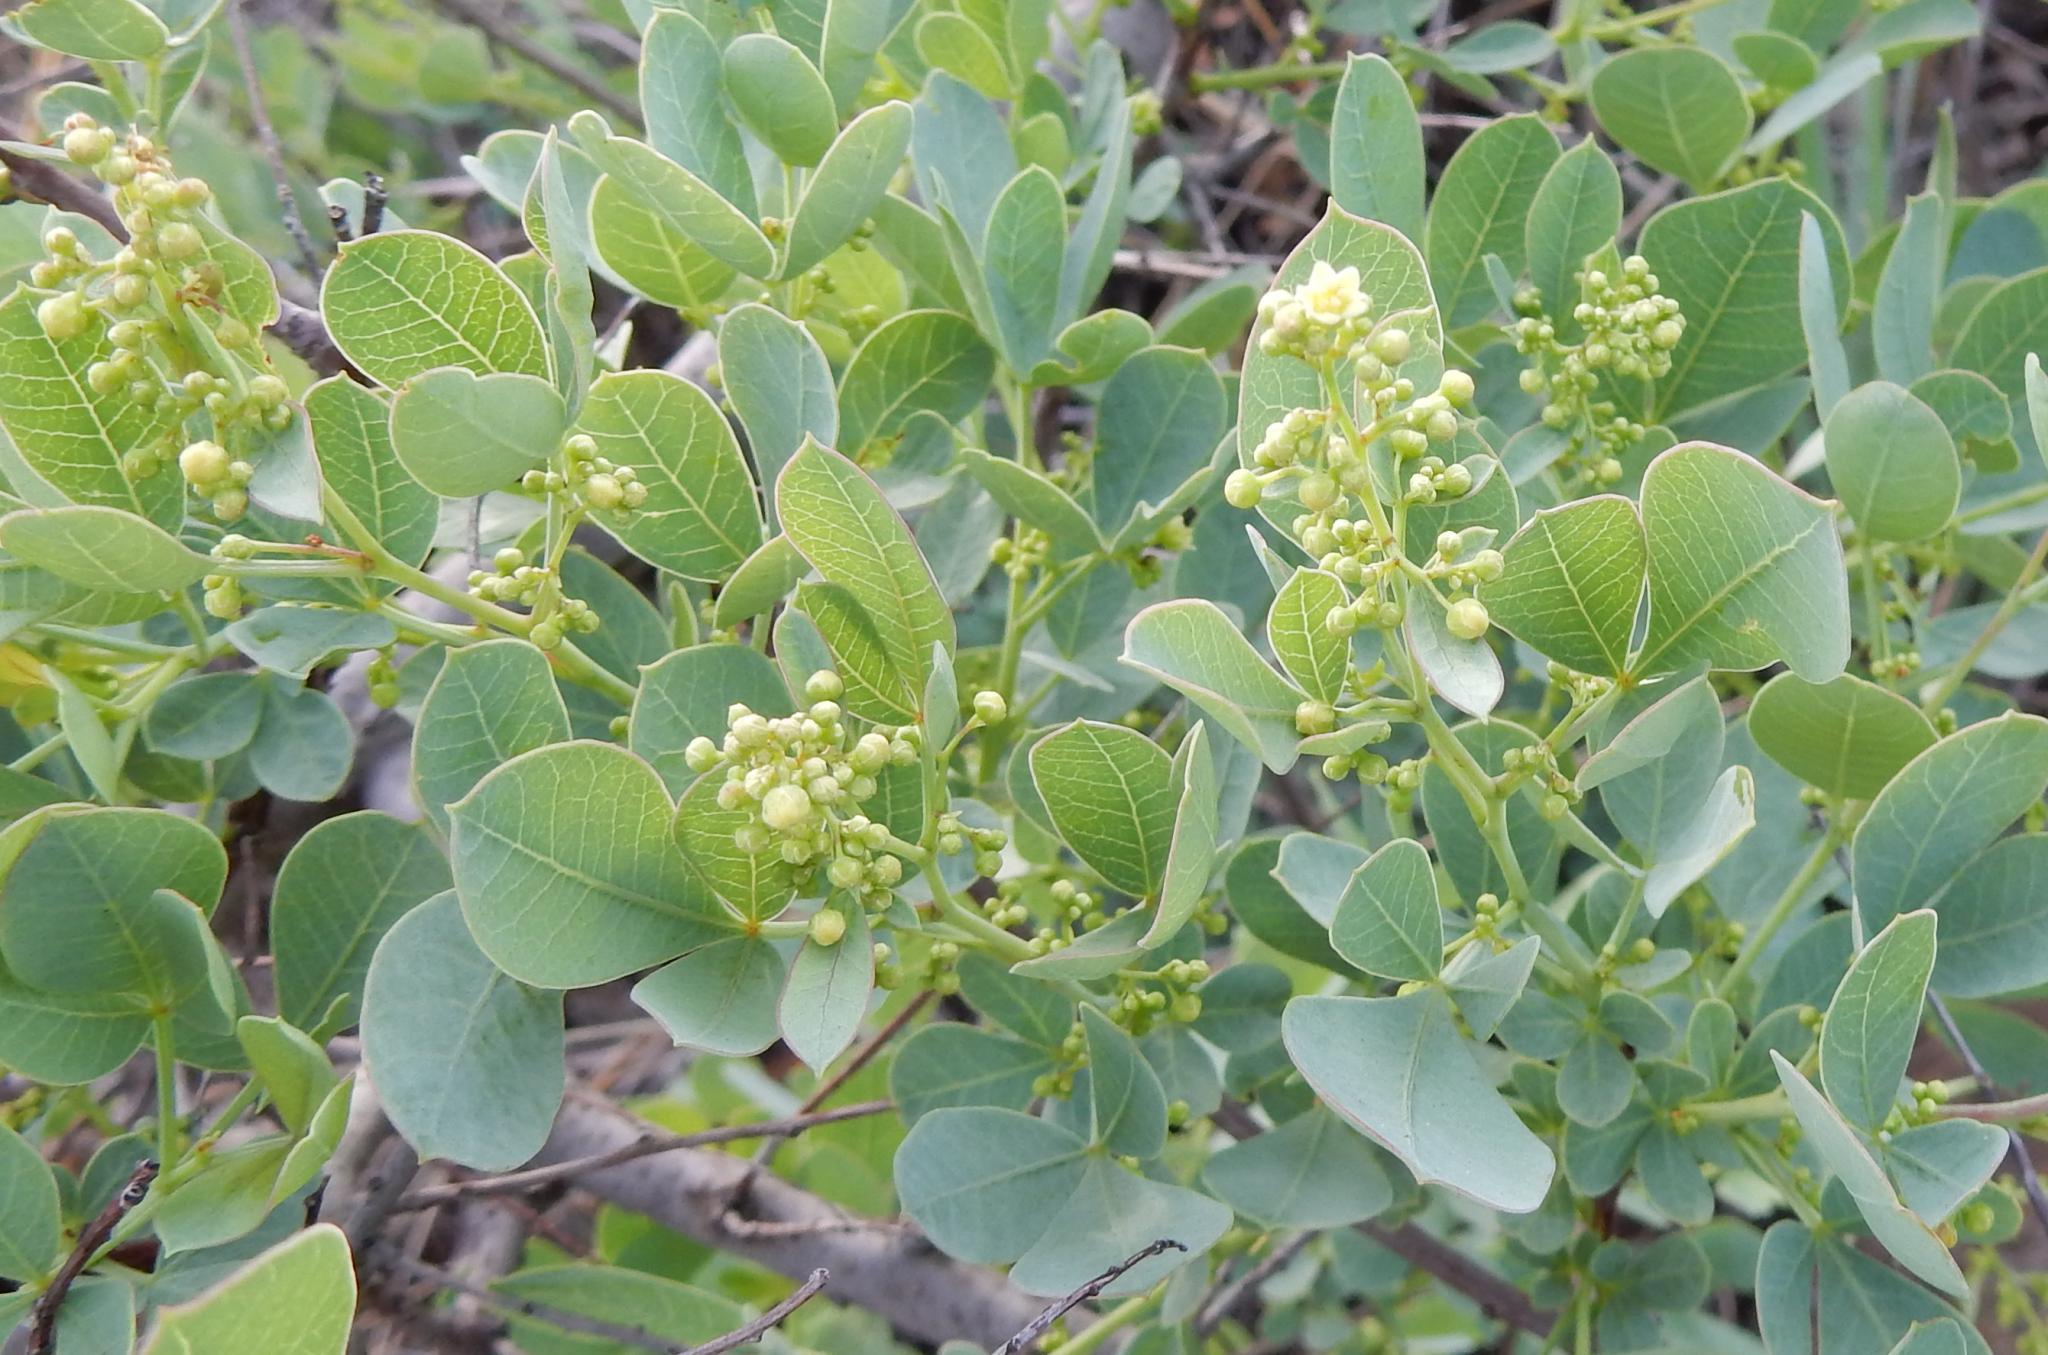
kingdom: Plantae
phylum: Tracheophyta
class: Magnoliopsida
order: Sapindales
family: Anacardiaceae
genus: Searsia
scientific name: Searsia zeyheri
